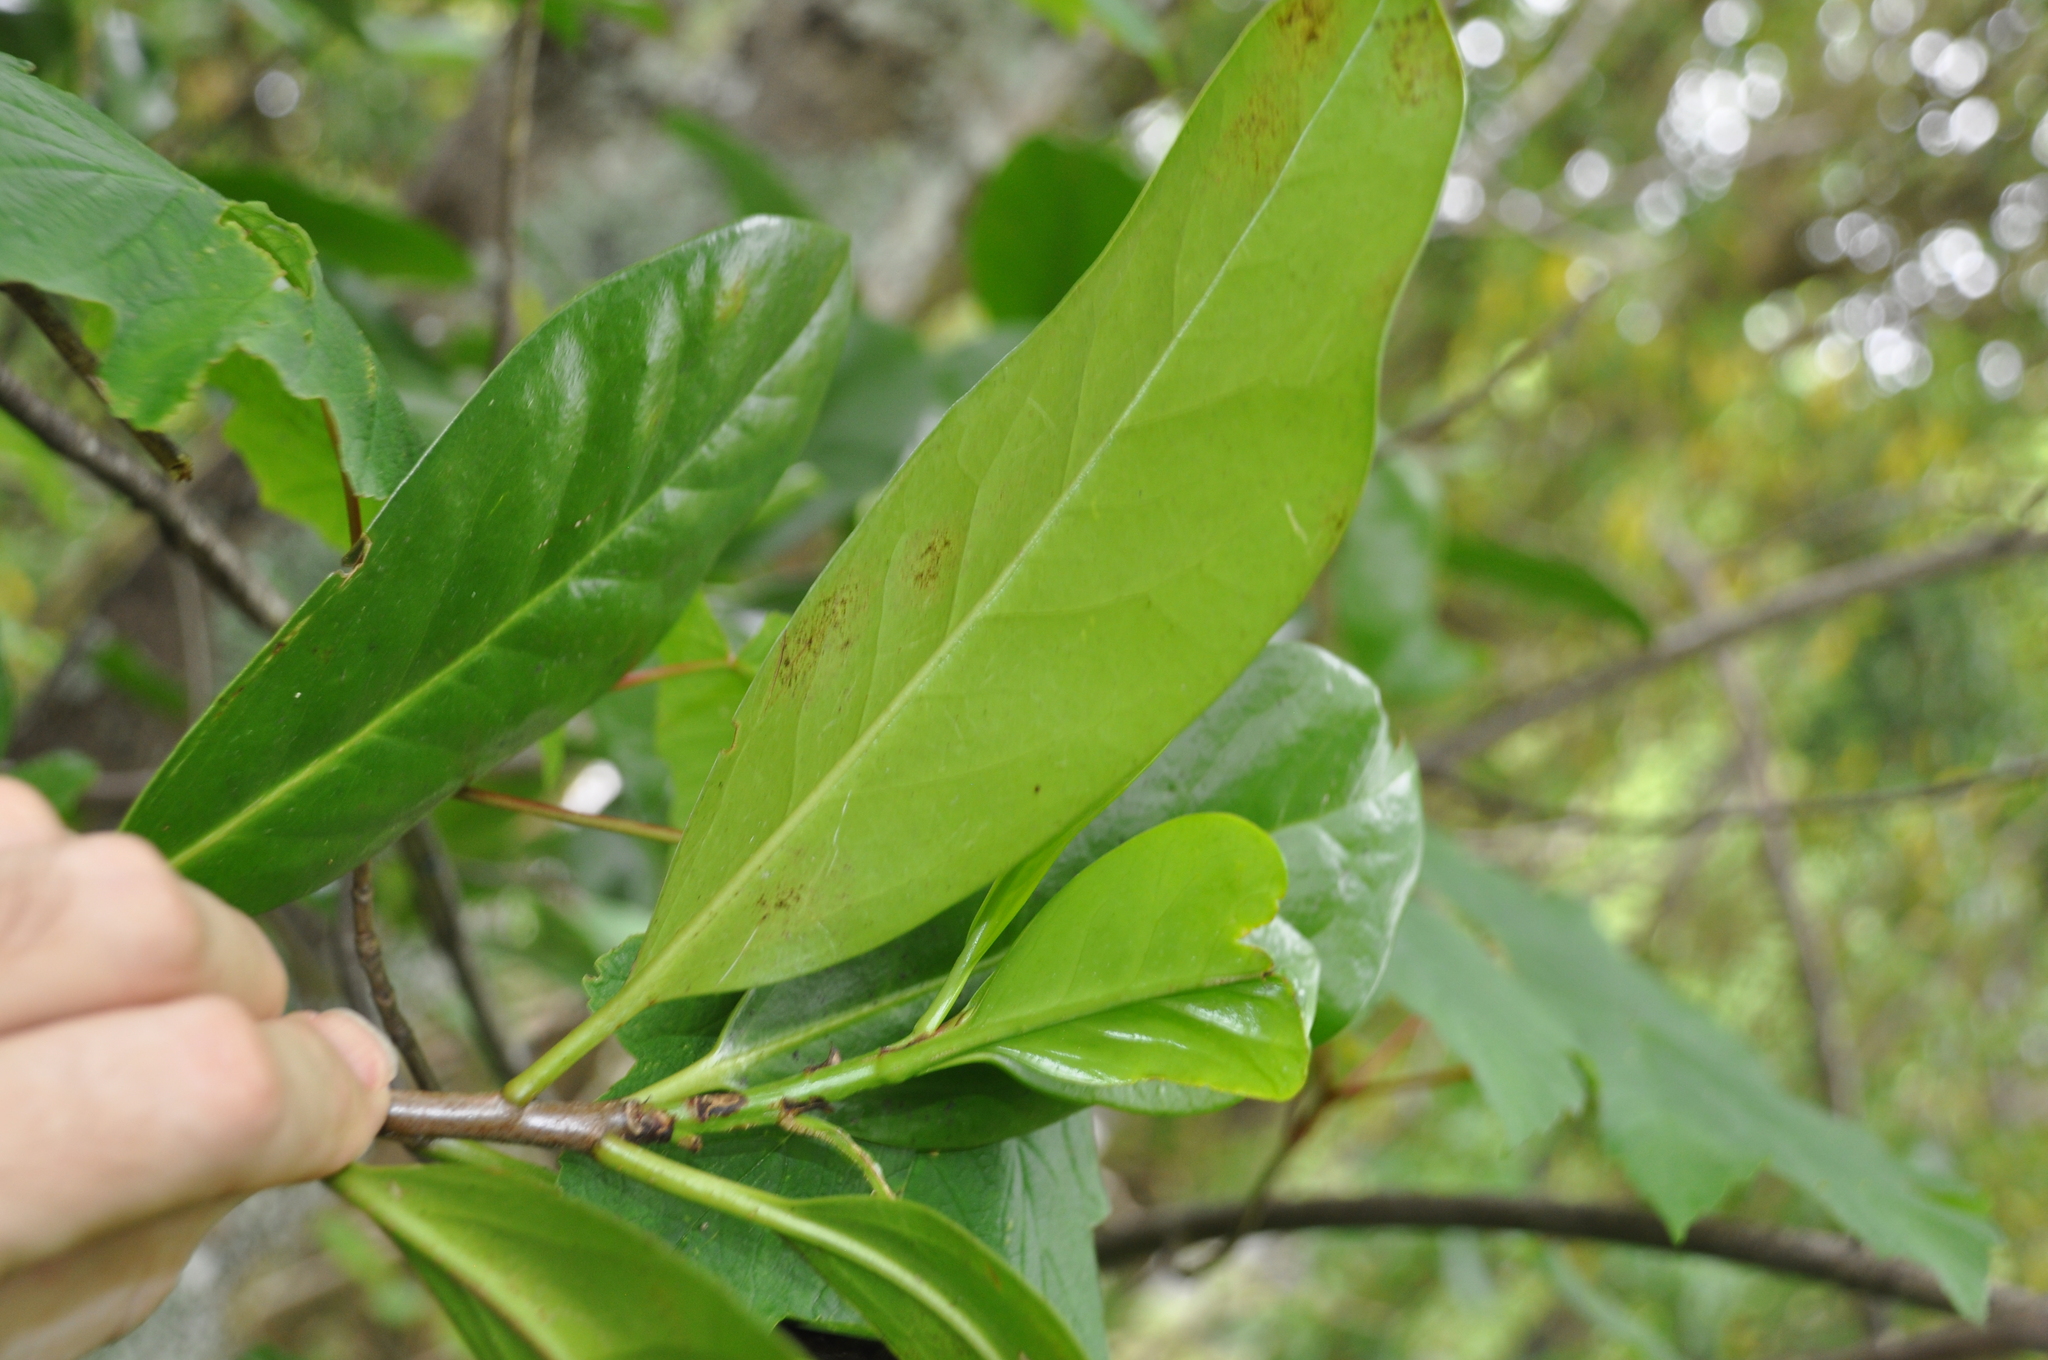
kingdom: Plantae
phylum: Tracheophyta
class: Magnoliopsida
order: Cucurbitales
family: Corynocarpaceae
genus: Corynocarpus
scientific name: Corynocarpus laevigatus
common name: New zealand laurel
